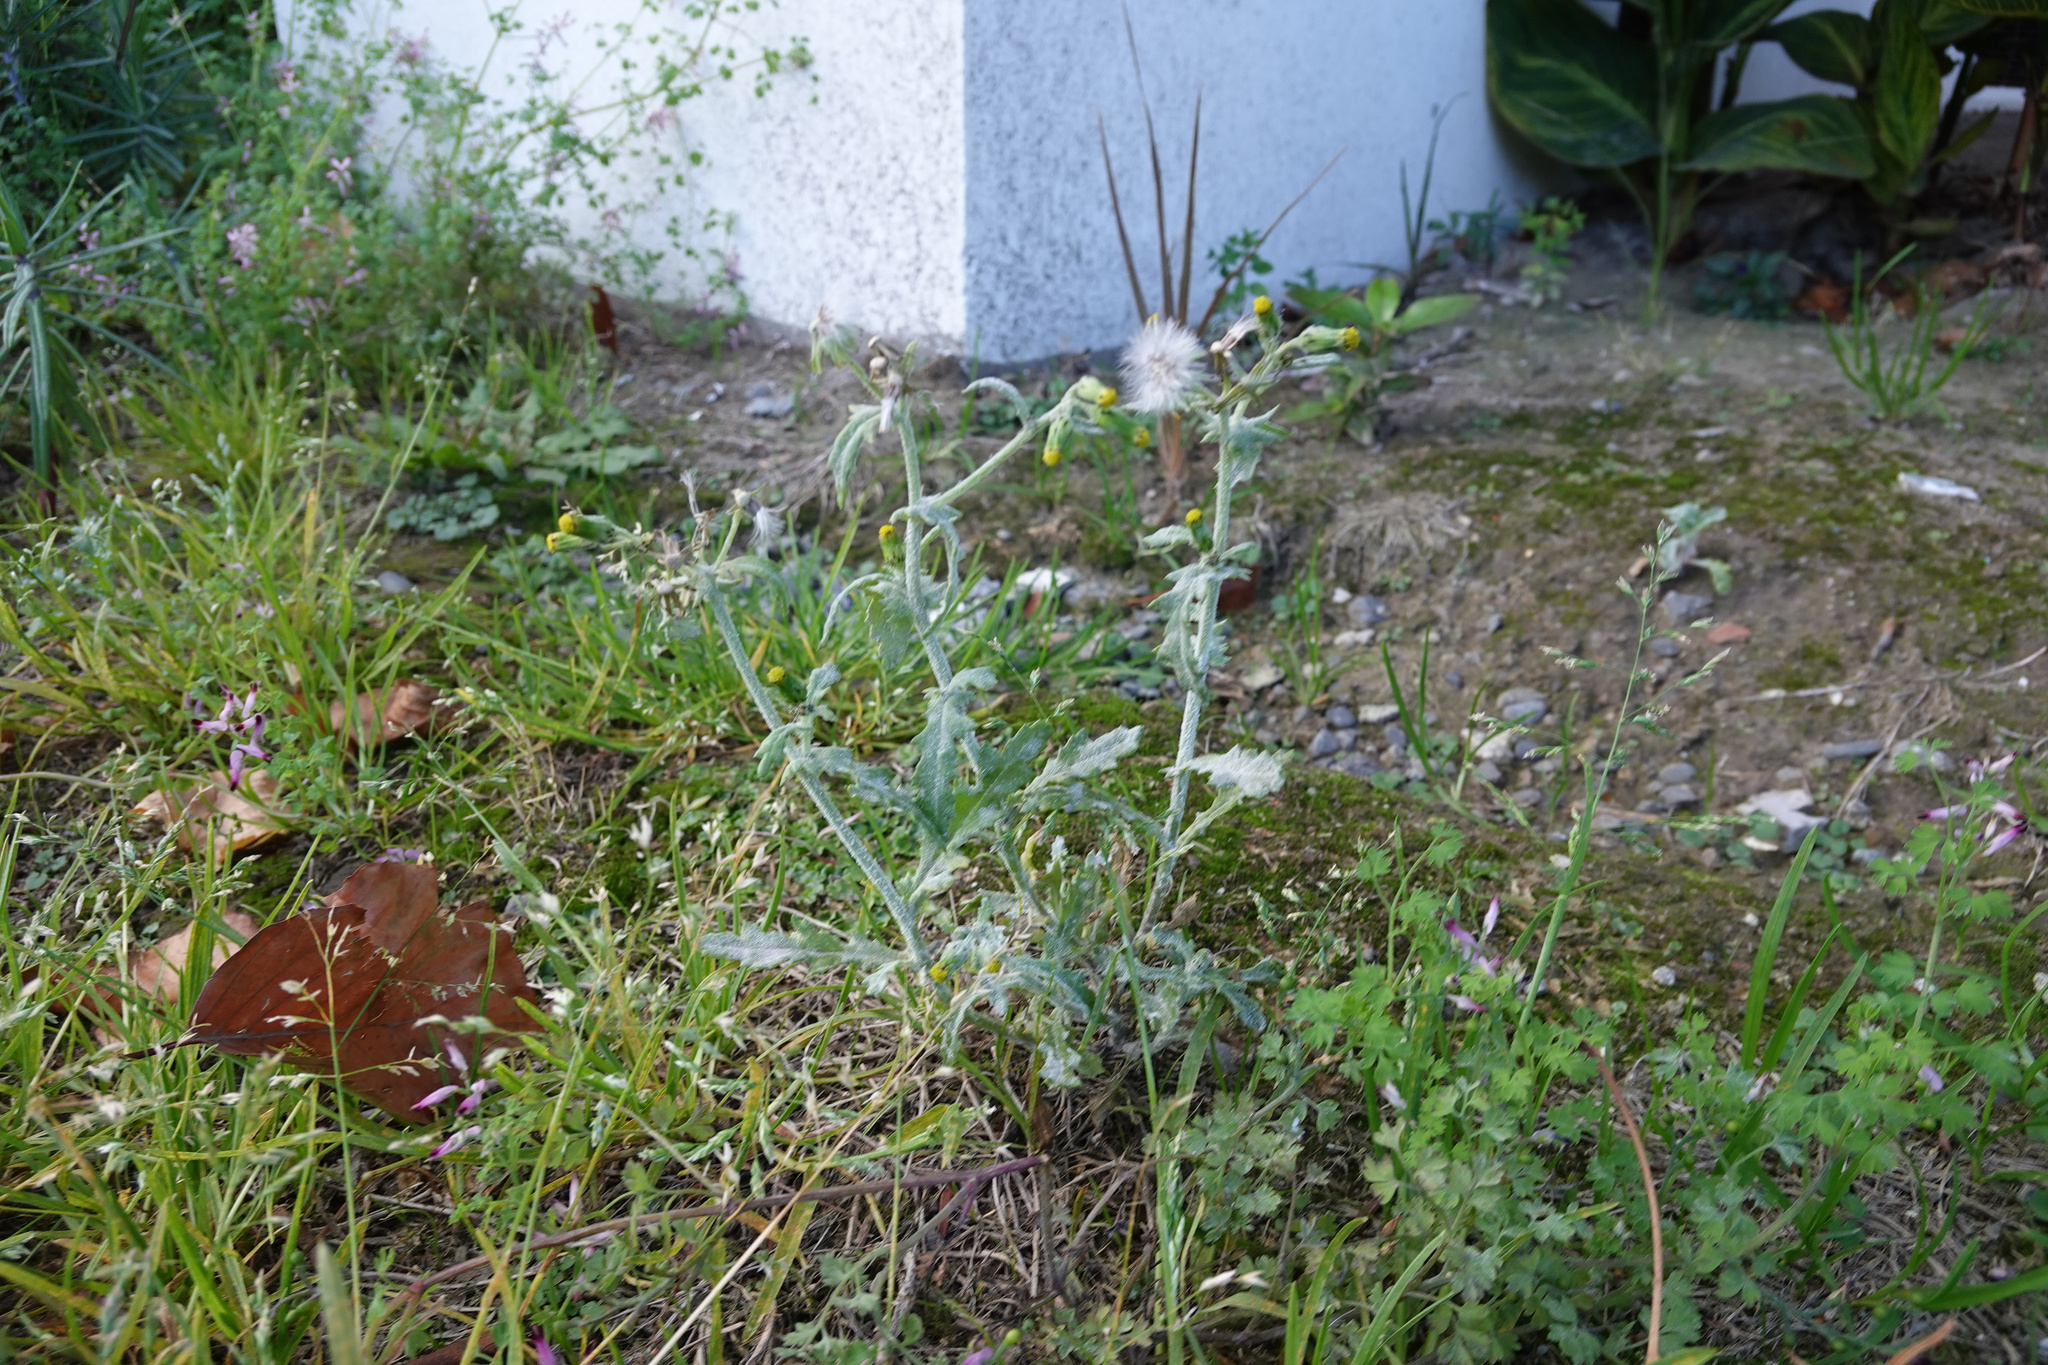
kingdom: Plantae
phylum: Tracheophyta
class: Magnoliopsida
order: Asterales
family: Asteraceae
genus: Senecio
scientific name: Senecio vulgaris
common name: Old-man-in-the-spring
